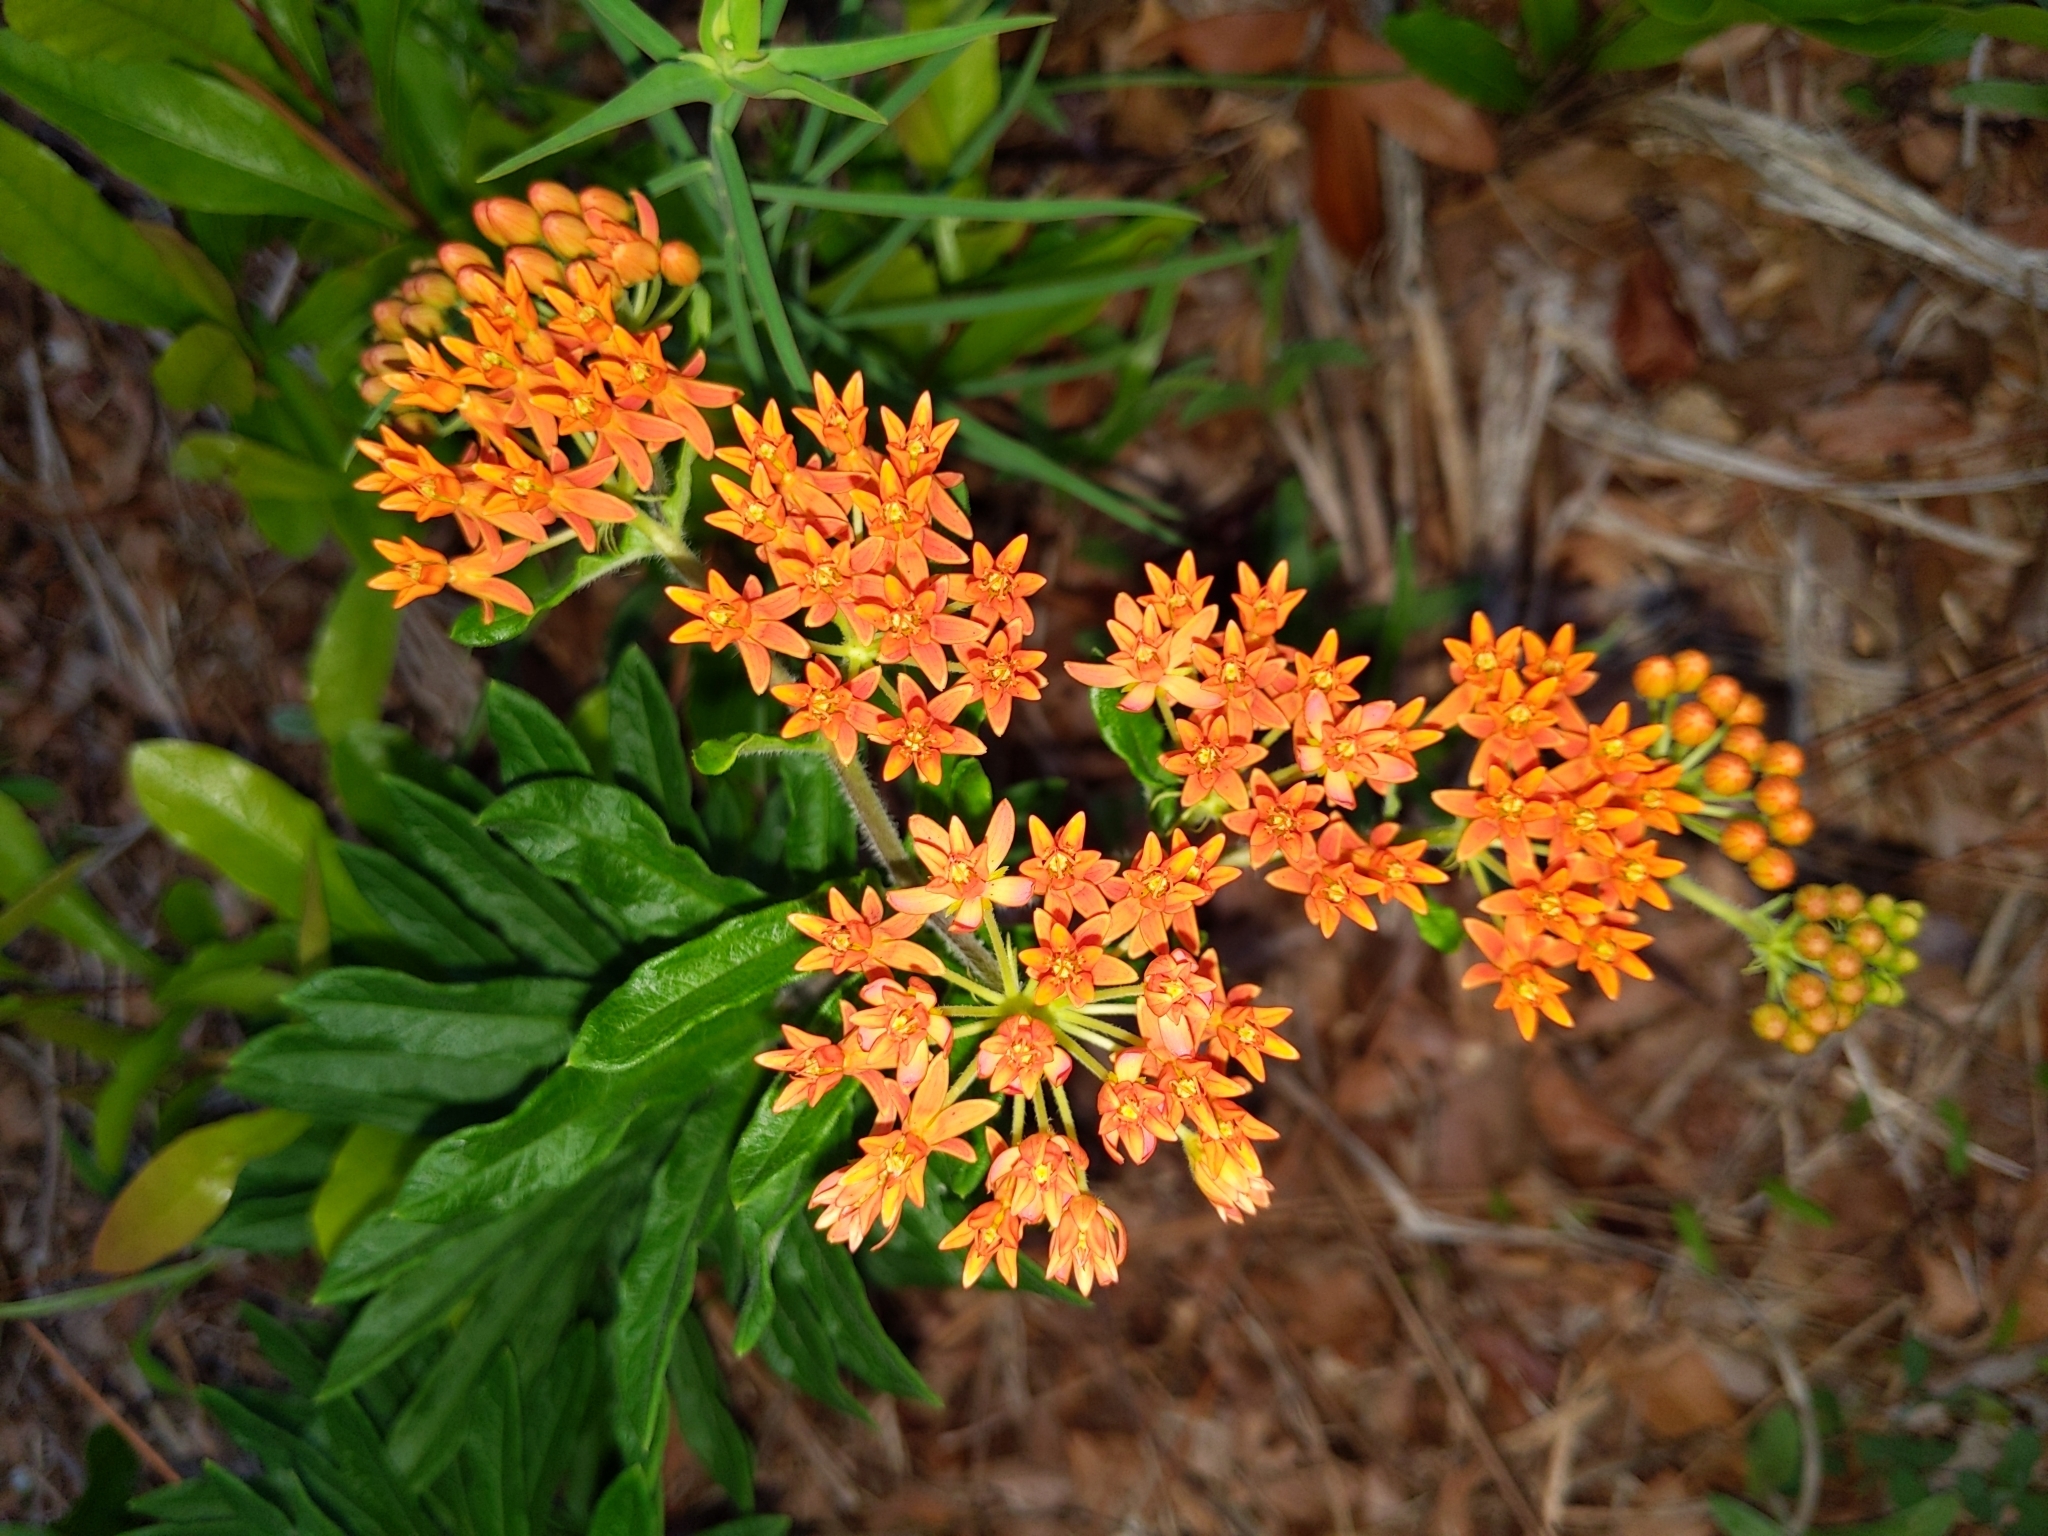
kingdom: Plantae
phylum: Tracheophyta
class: Magnoliopsida
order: Gentianales
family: Apocynaceae
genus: Asclepias
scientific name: Asclepias tuberosa
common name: Butterfly milkweed
